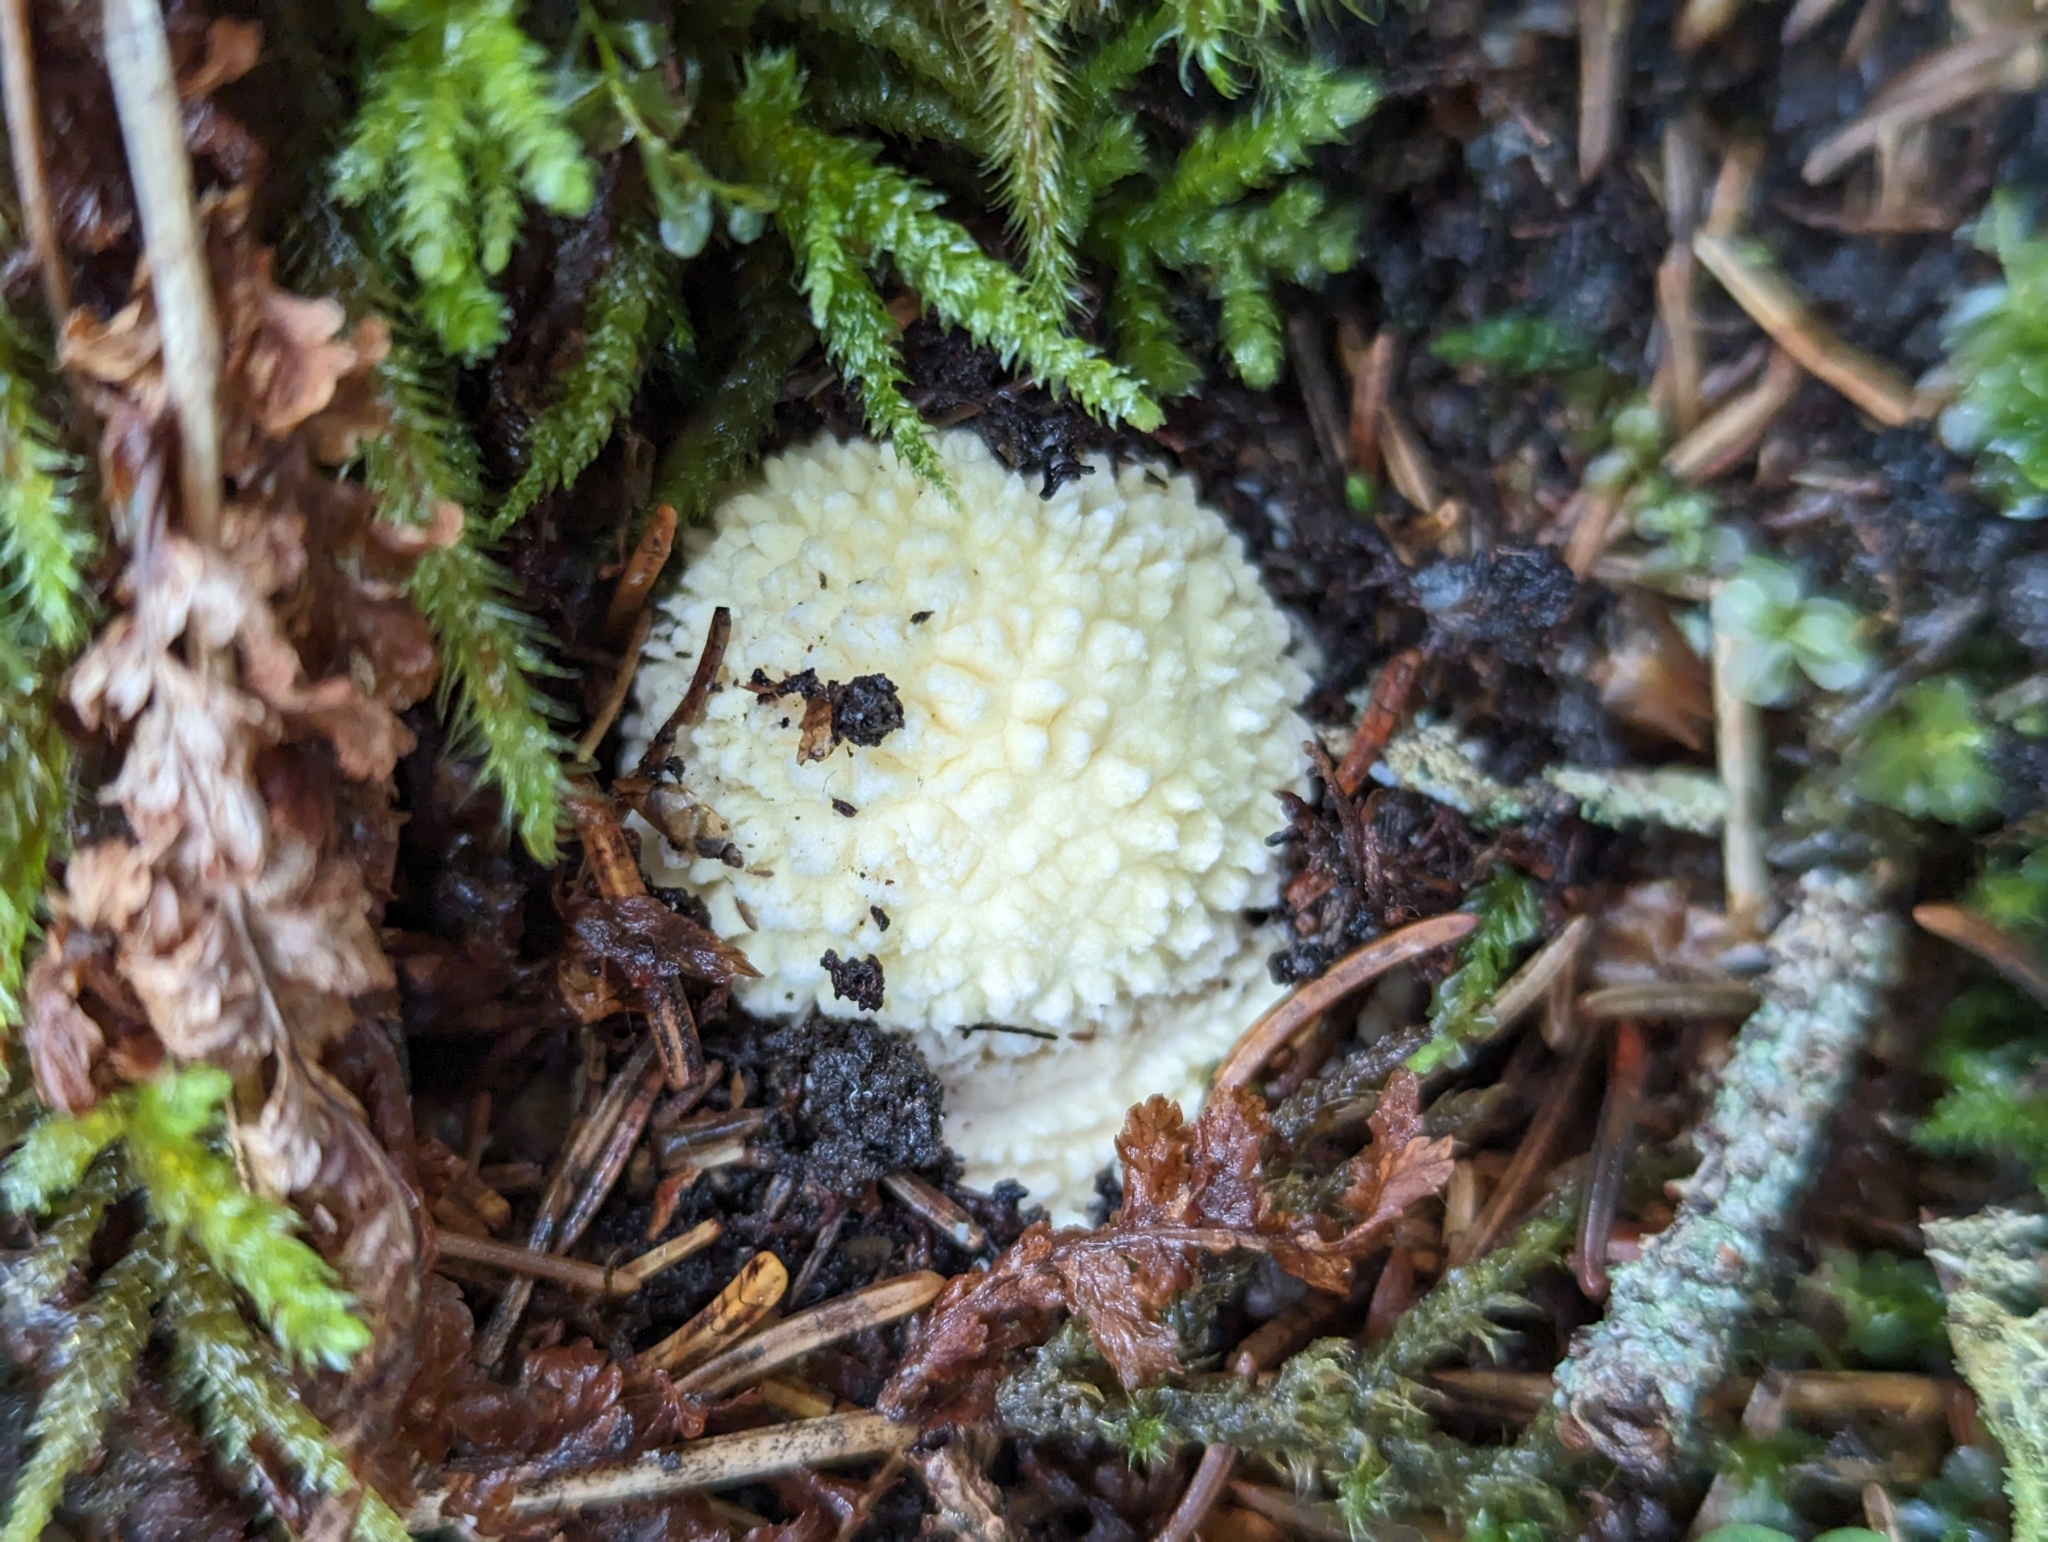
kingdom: Fungi
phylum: Basidiomycota
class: Agaricomycetes
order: Agaricales
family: Amanitaceae
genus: Amanita
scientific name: Amanita muscaria
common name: Fly agaric
